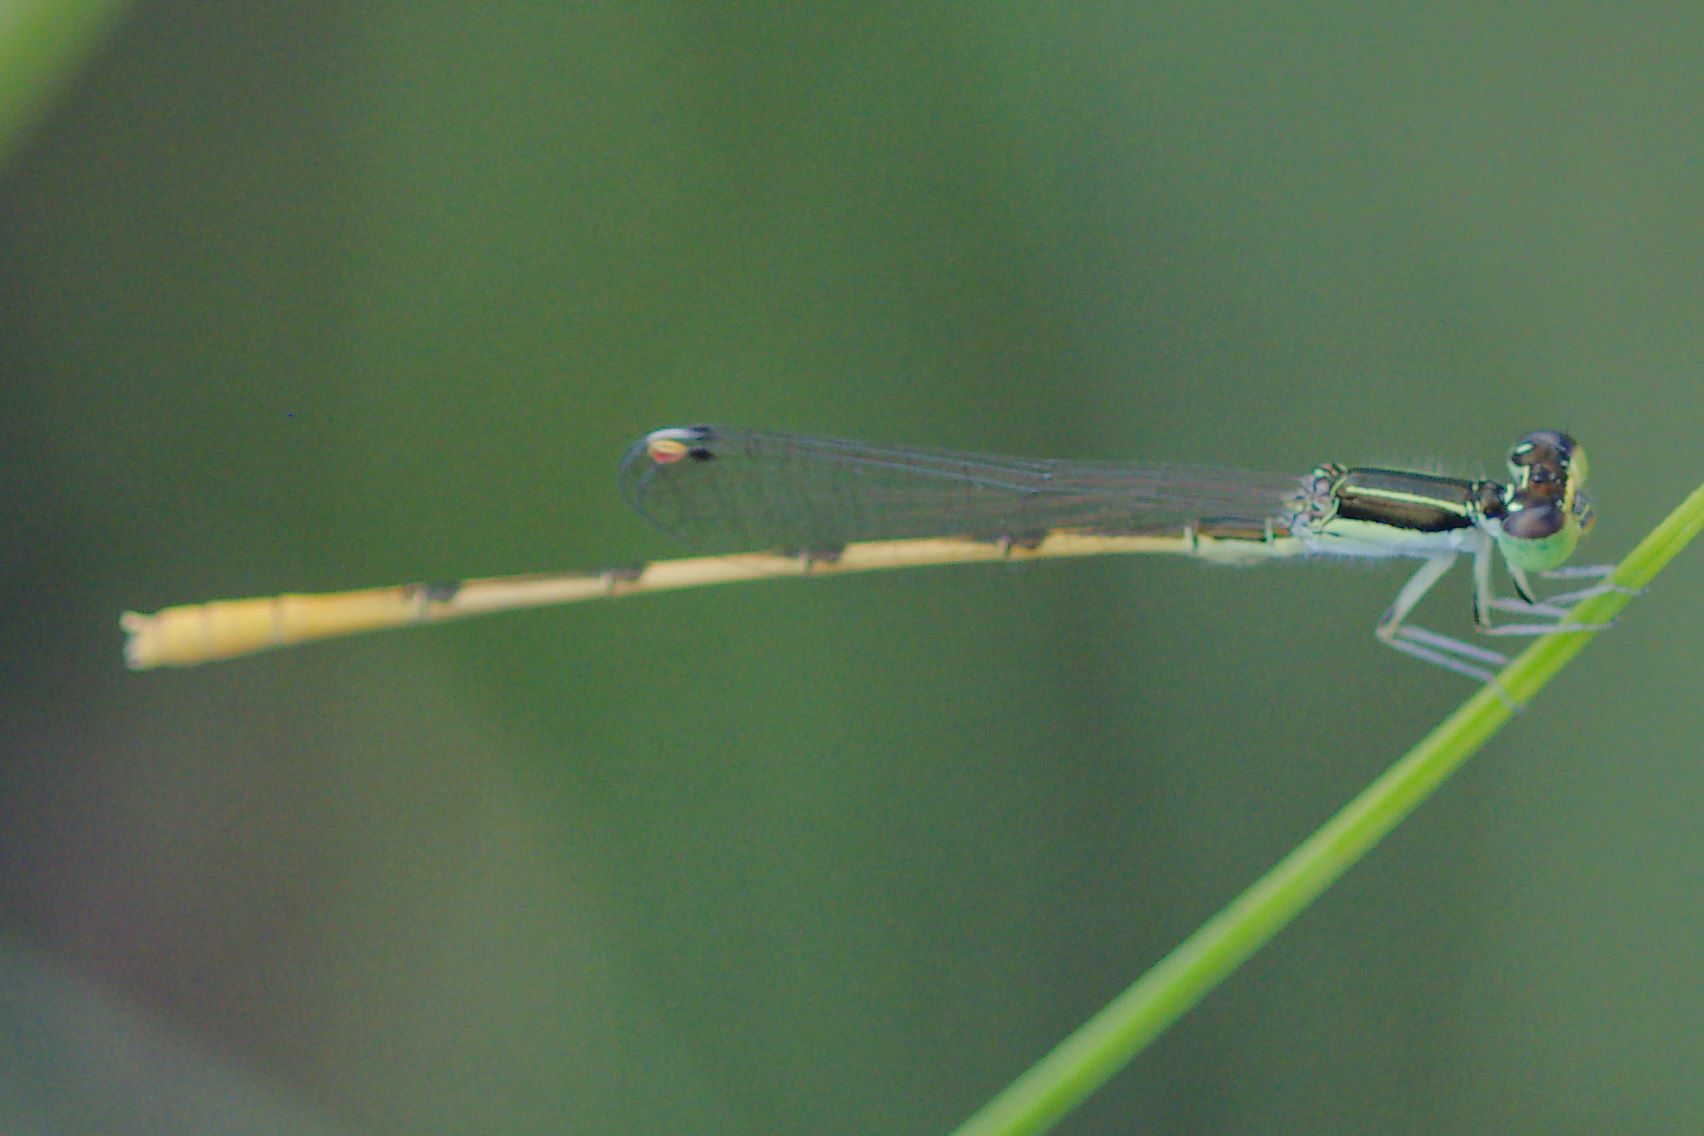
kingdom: Animalia
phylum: Arthropoda
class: Insecta
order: Odonata
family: Coenagrionidae
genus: Ischnura
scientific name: Ischnura hastata
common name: Citrine forktail
